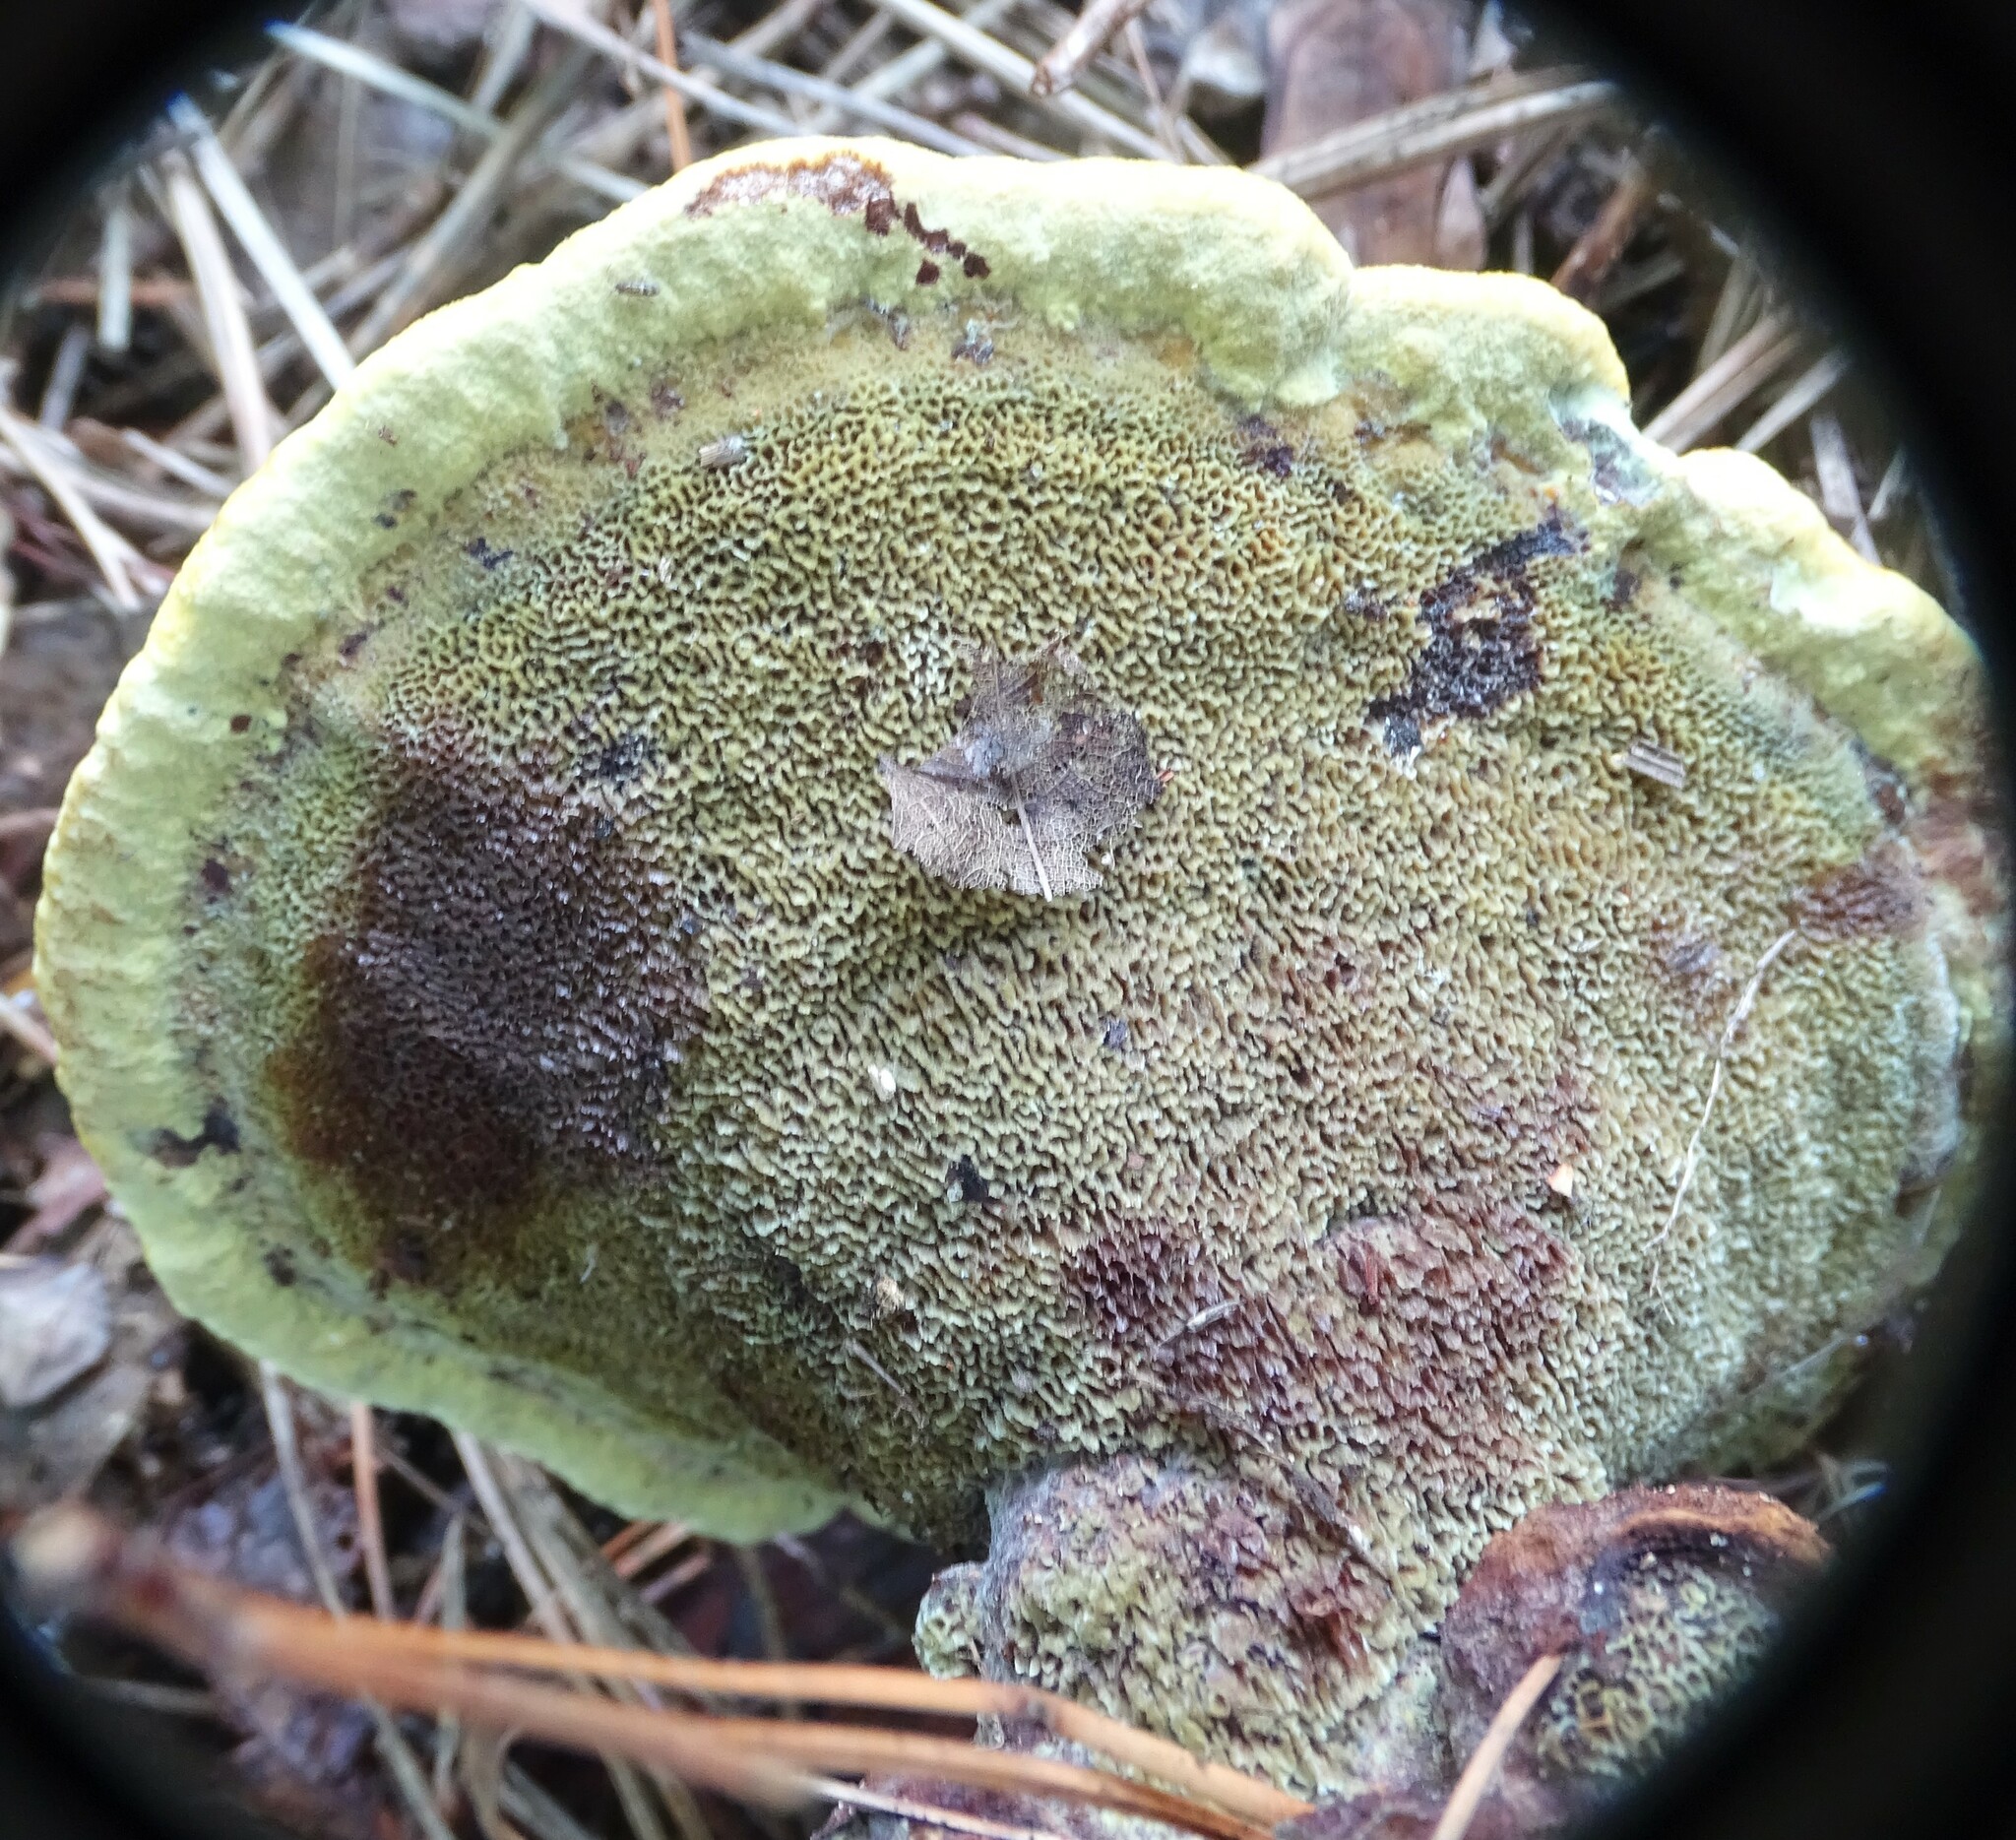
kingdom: Fungi
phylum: Basidiomycota
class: Agaricomycetes
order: Polyporales
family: Laetiporaceae
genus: Phaeolus
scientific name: Phaeolus schweinitzii
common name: Dyer's mazegill
